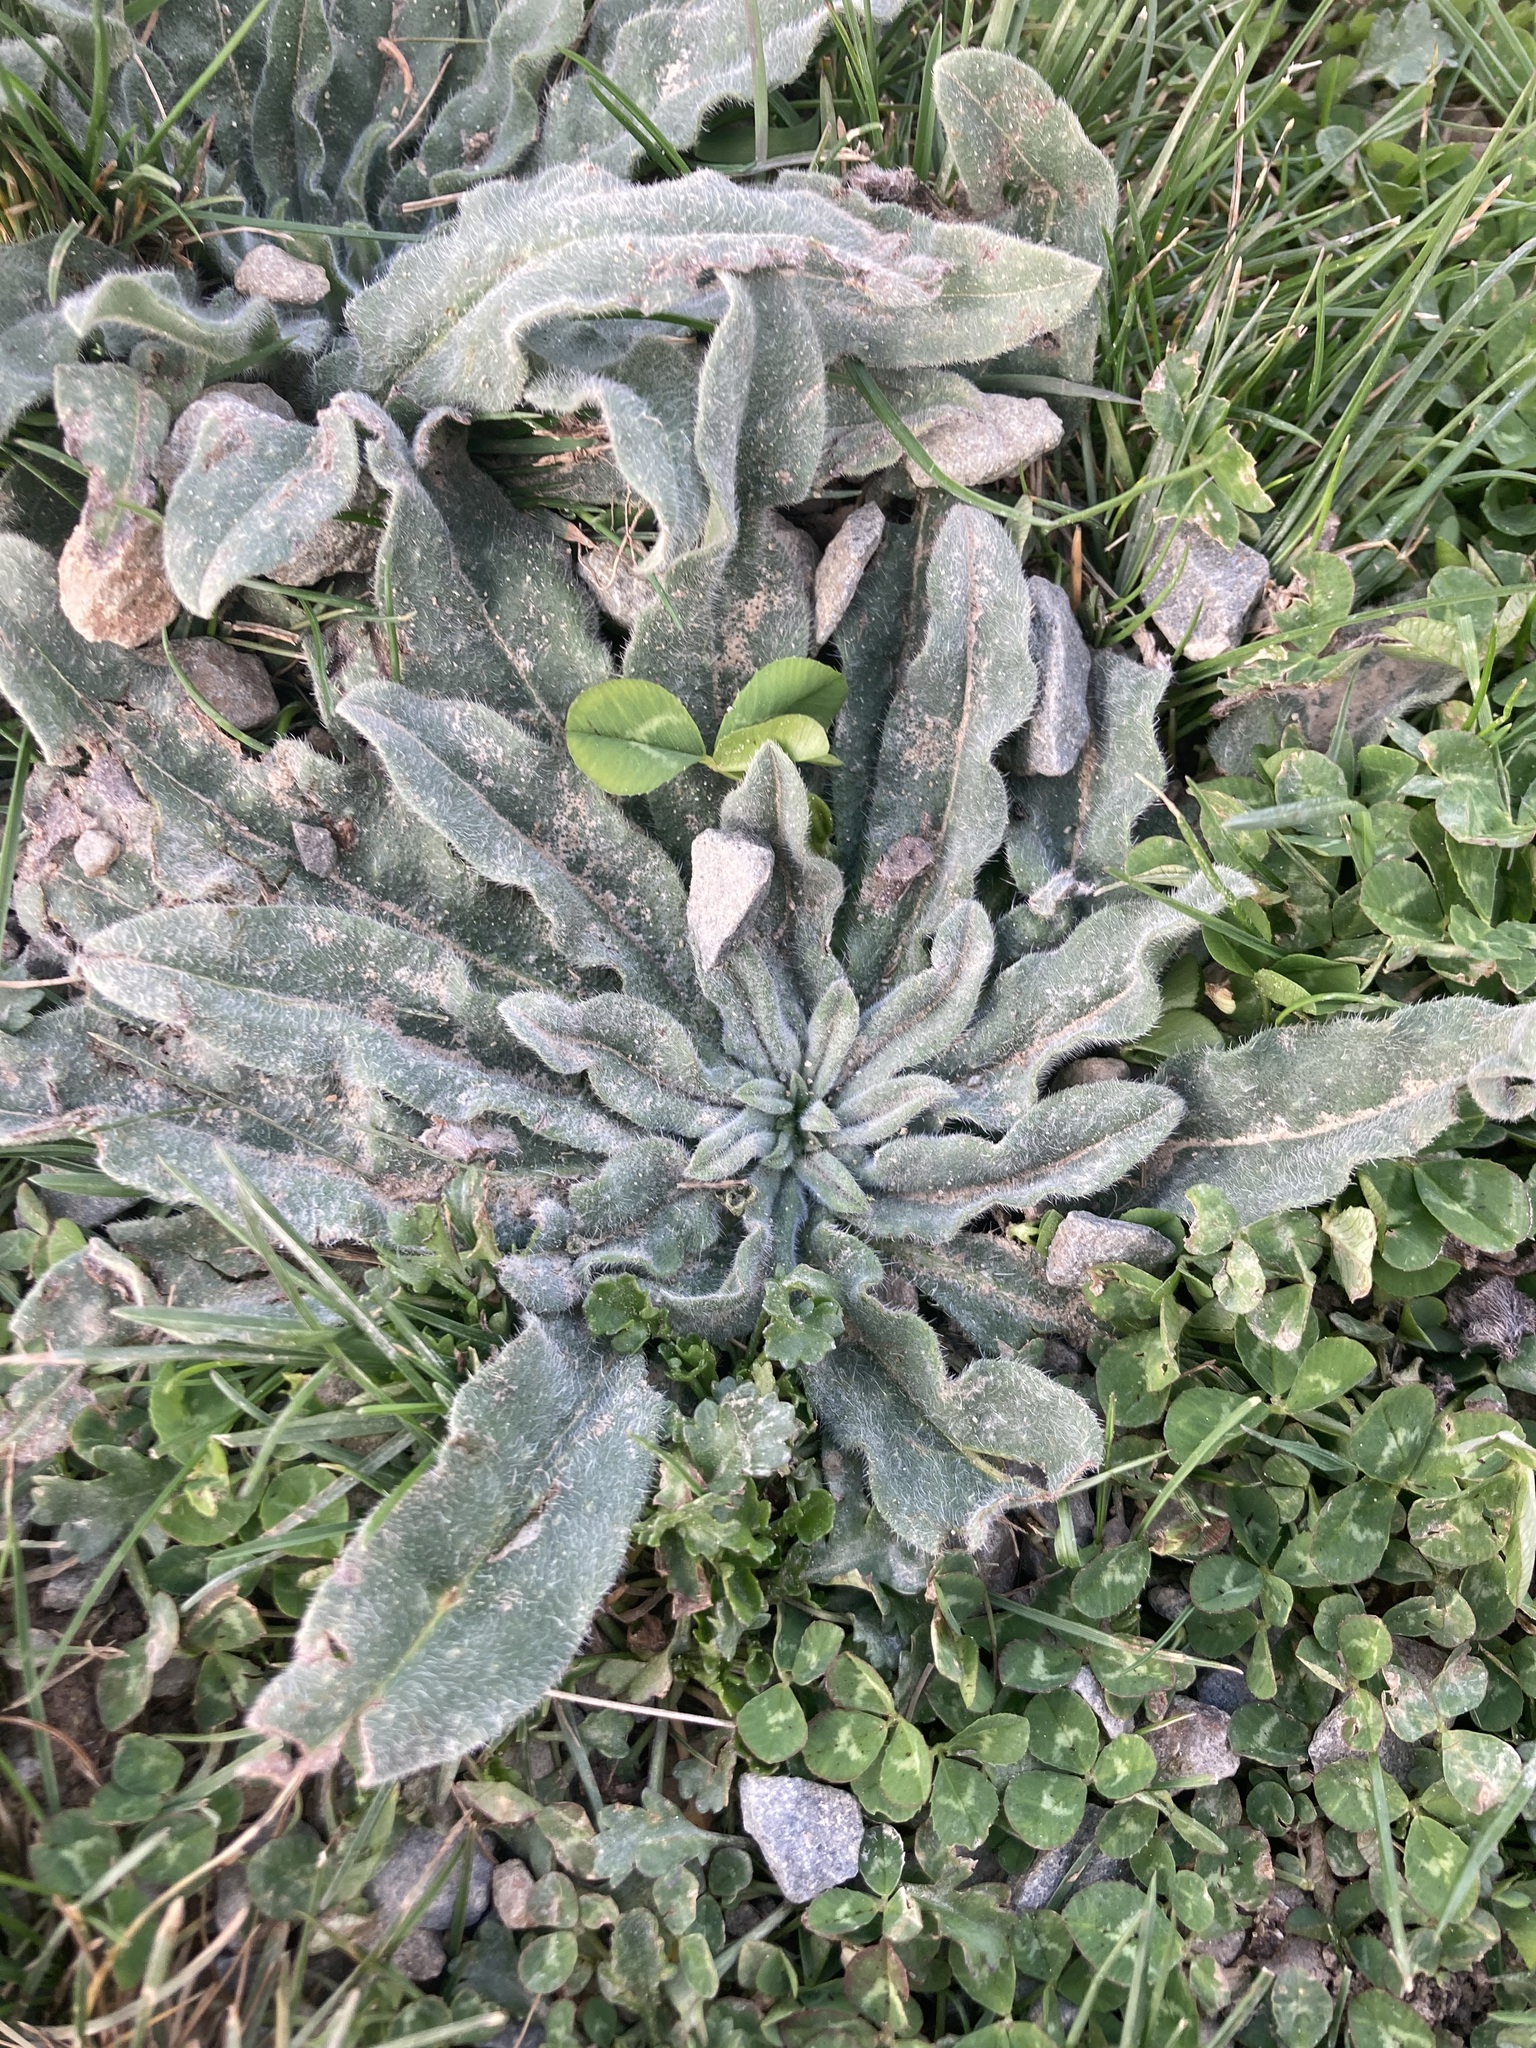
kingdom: Plantae
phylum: Tracheophyta
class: Magnoliopsida
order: Boraginales
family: Boraginaceae
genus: Echium
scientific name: Echium vulgare
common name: Common viper's bugloss
